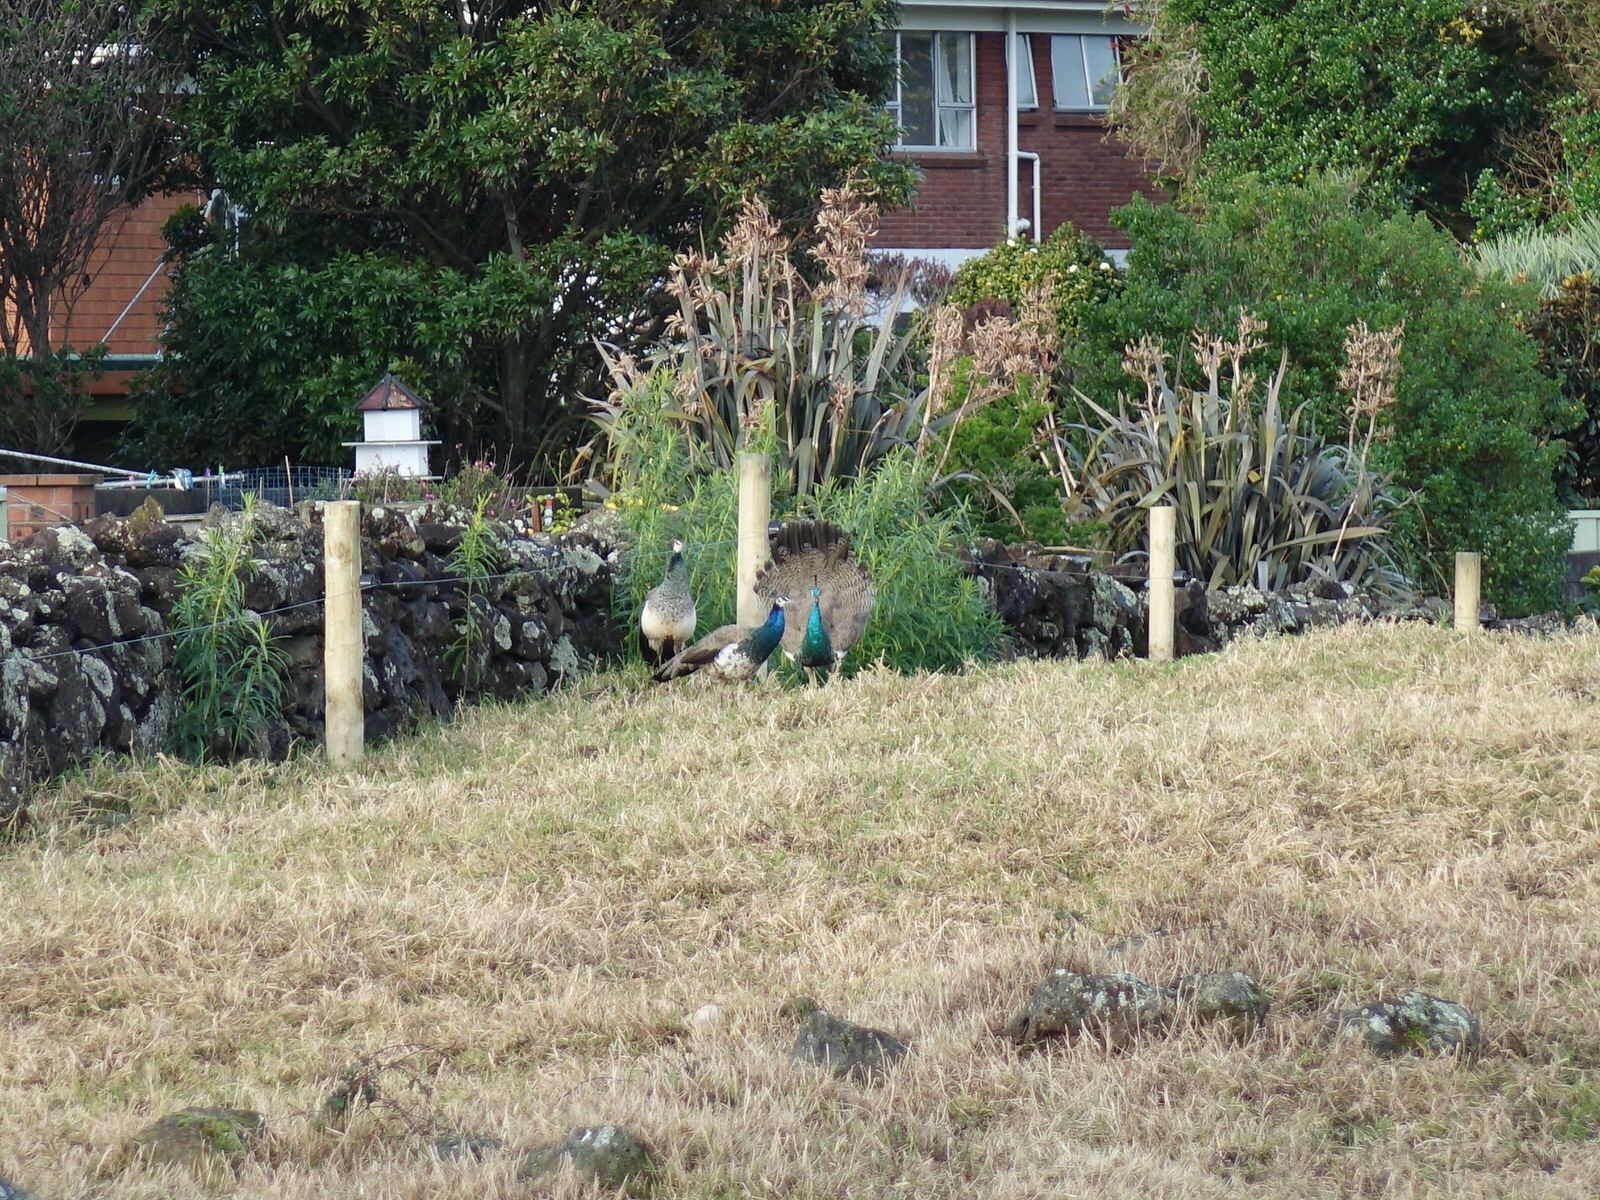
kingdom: Animalia
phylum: Chordata
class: Aves
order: Galliformes
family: Phasianidae
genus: Pavo
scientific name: Pavo cristatus
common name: Indian peafowl
